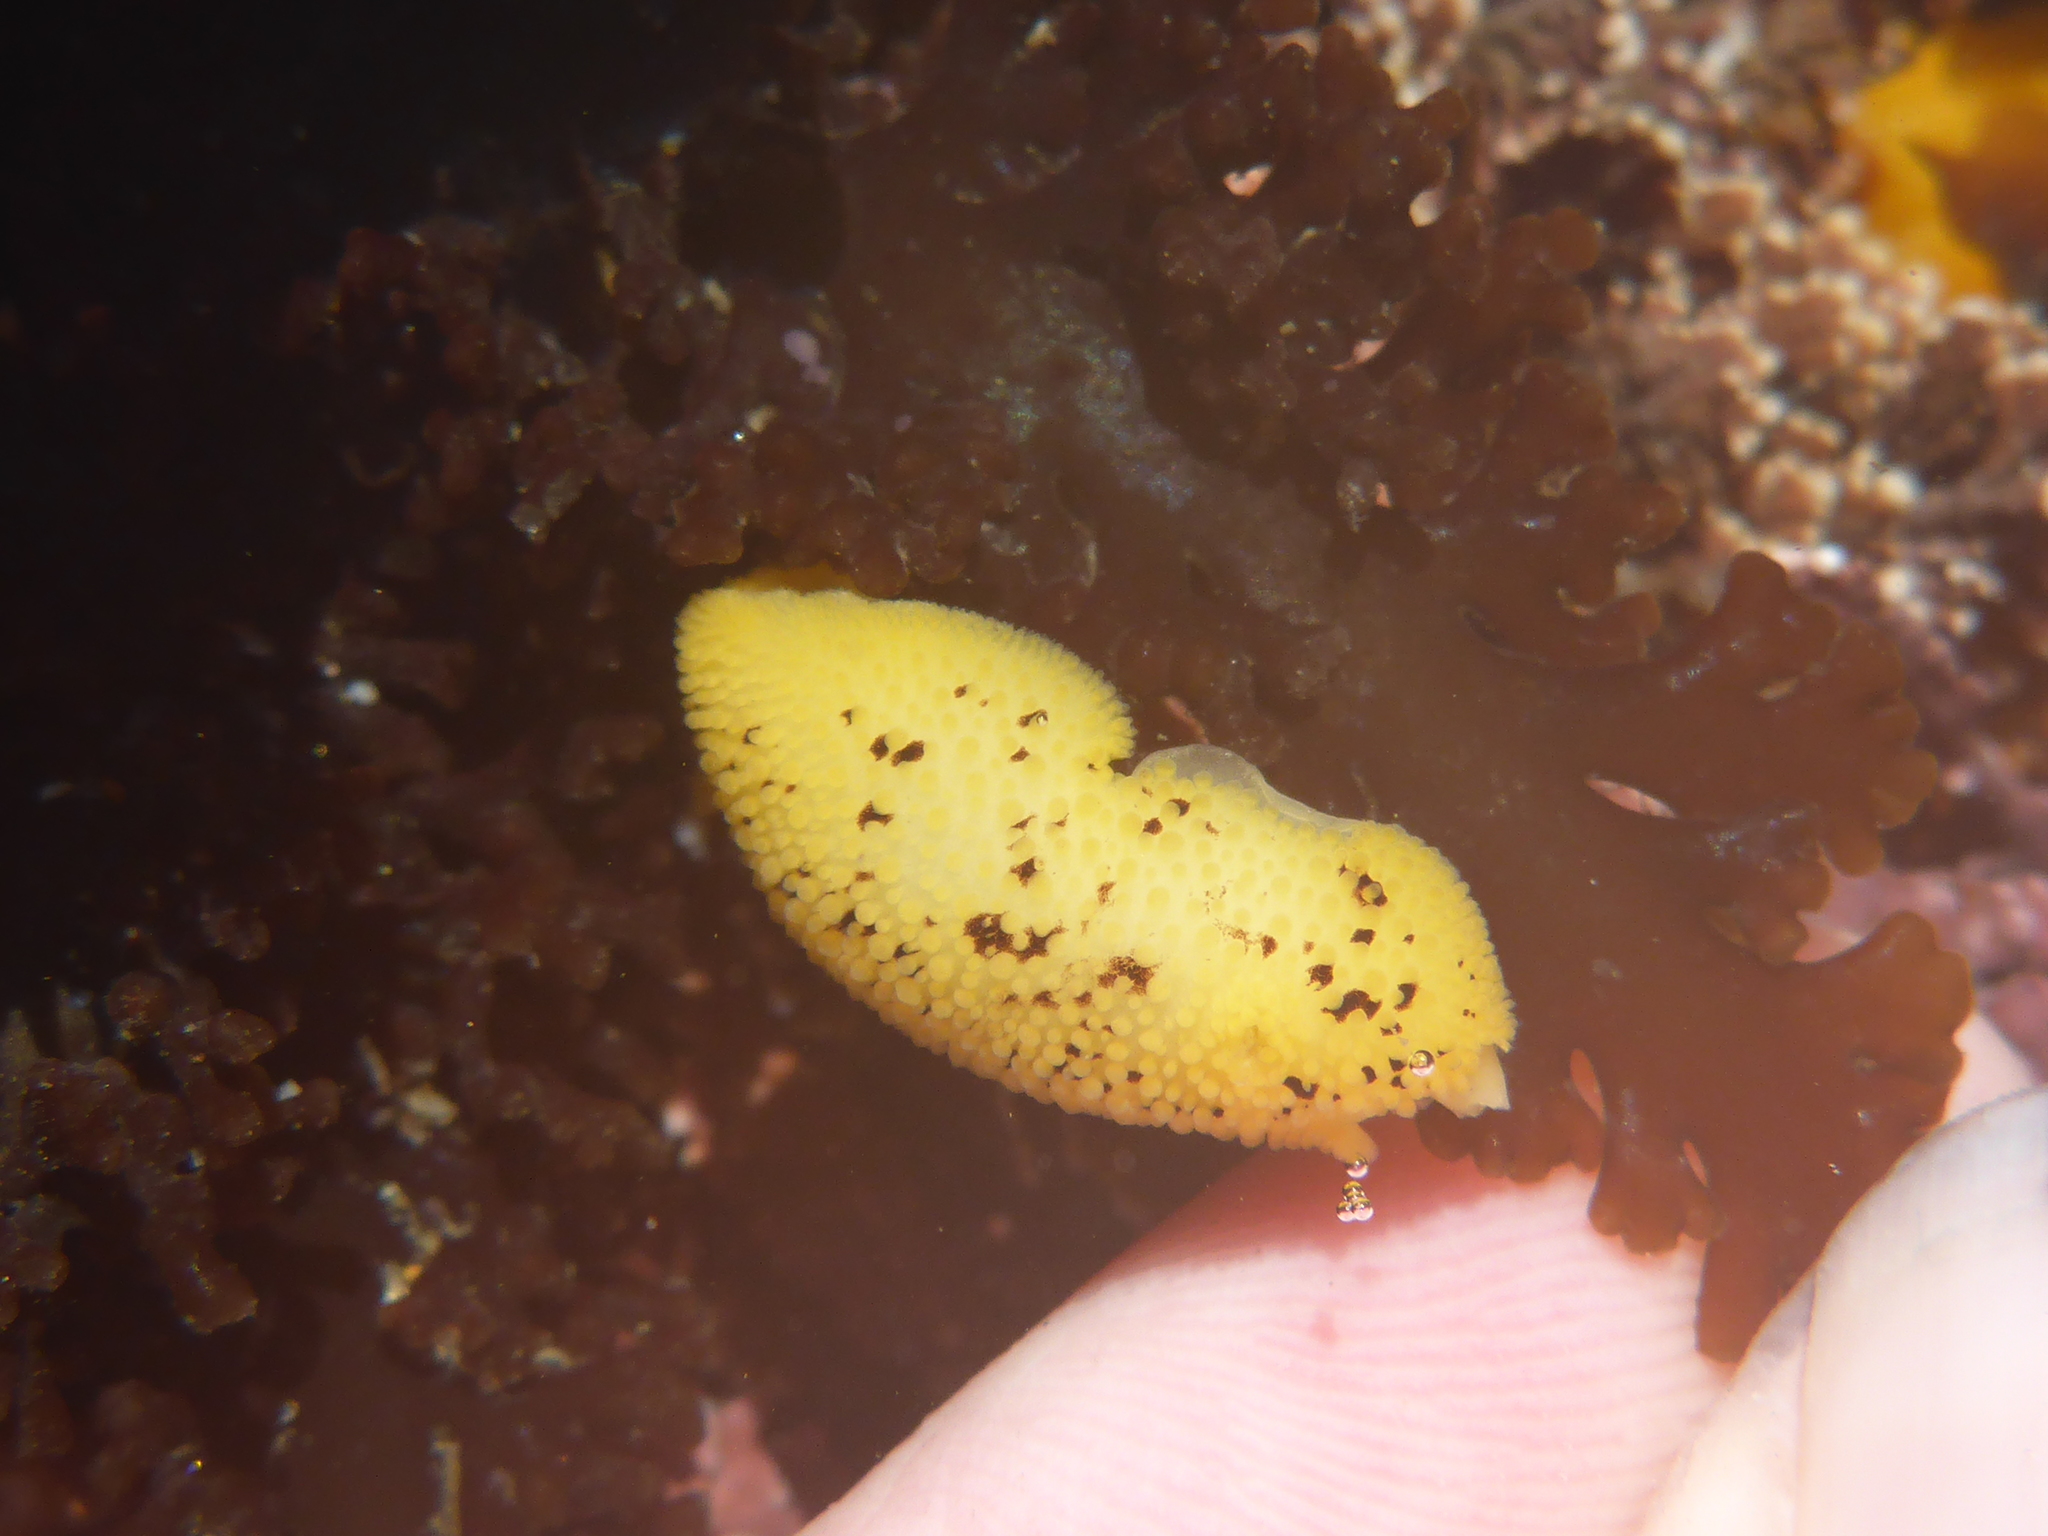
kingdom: Animalia
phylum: Mollusca
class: Gastropoda
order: Nudibranchia
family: Discodorididae
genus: Peltodoris
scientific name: Peltodoris nobilis
